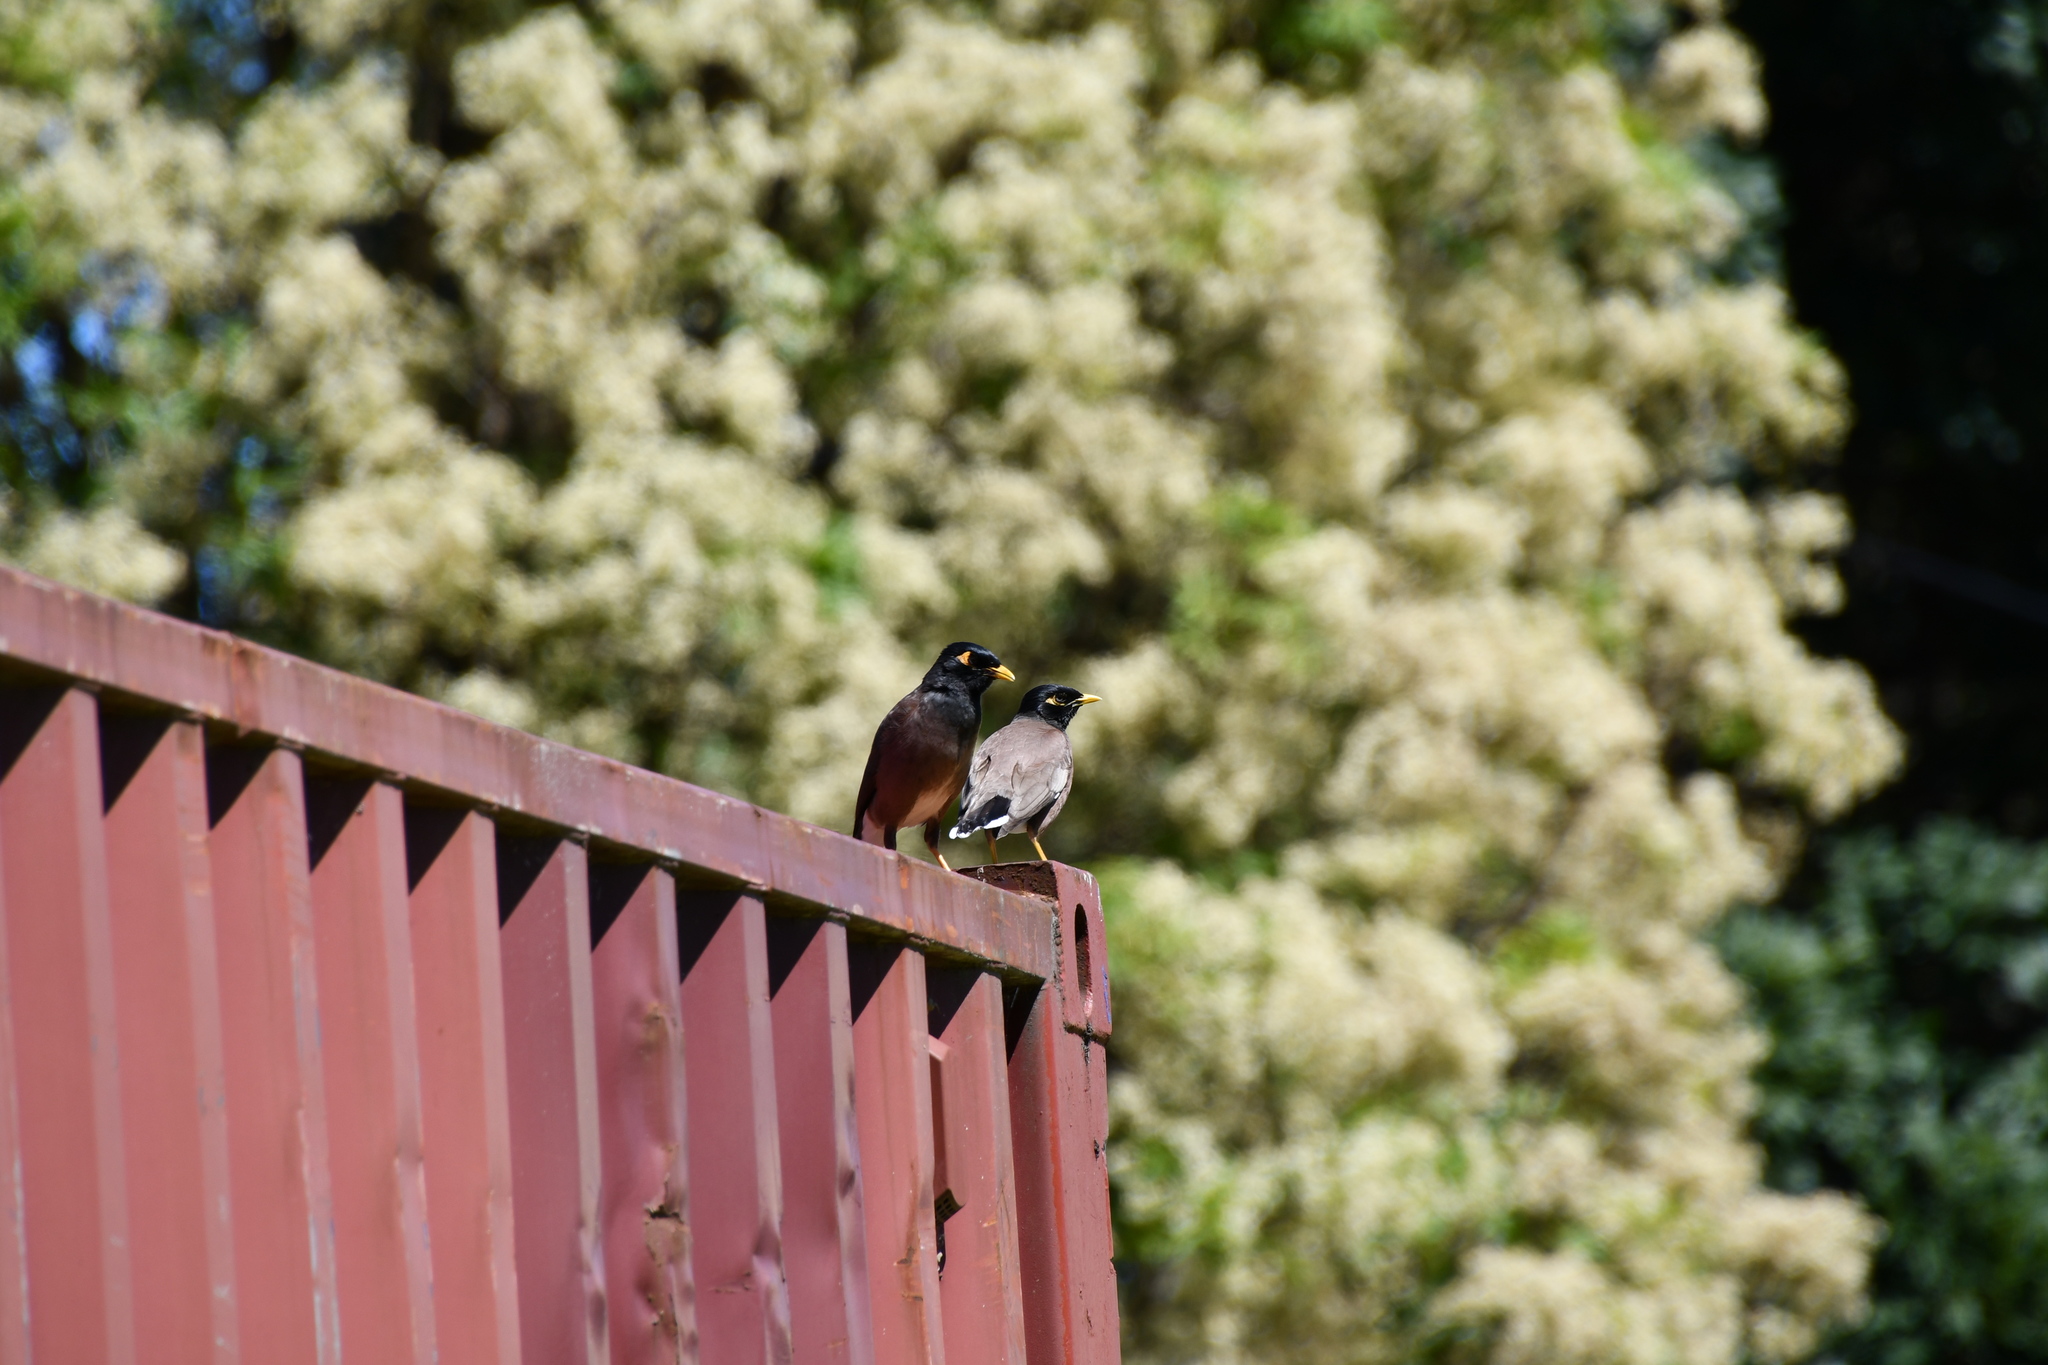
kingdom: Animalia
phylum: Chordata
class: Aves
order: Passeriformes
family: Sturnidae
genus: Acridotheres
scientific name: Acridotheres tristis
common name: Common myna
